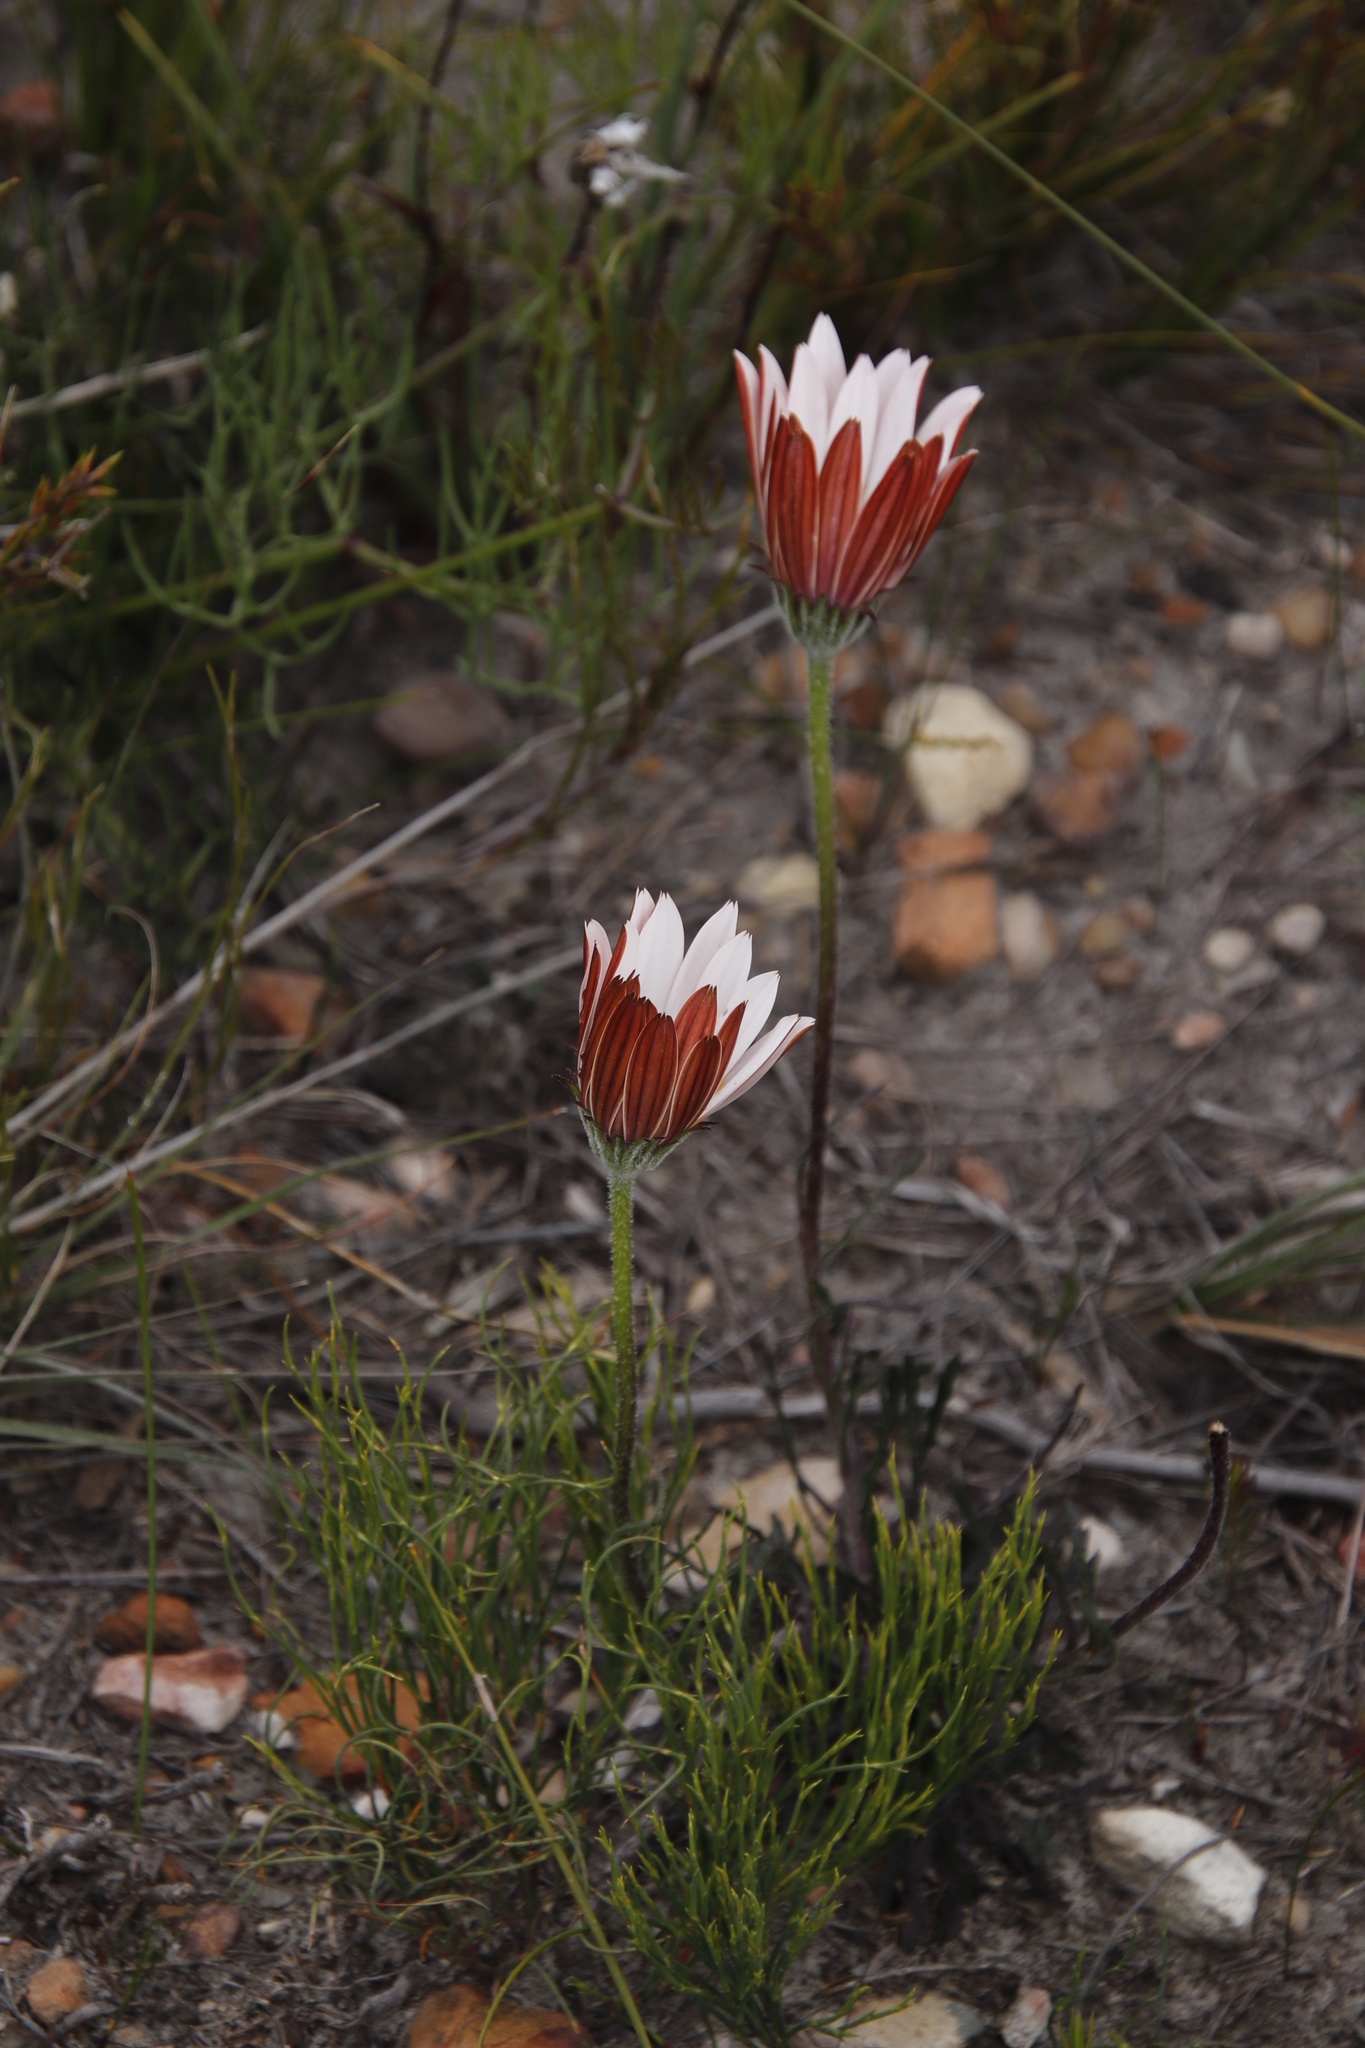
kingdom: Plantae
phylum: Tracheophyta
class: Magnoliopsida
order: Asterales
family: Asteraceae
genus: Dimorphotheca
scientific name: Dimorphotheca nudicaulis
